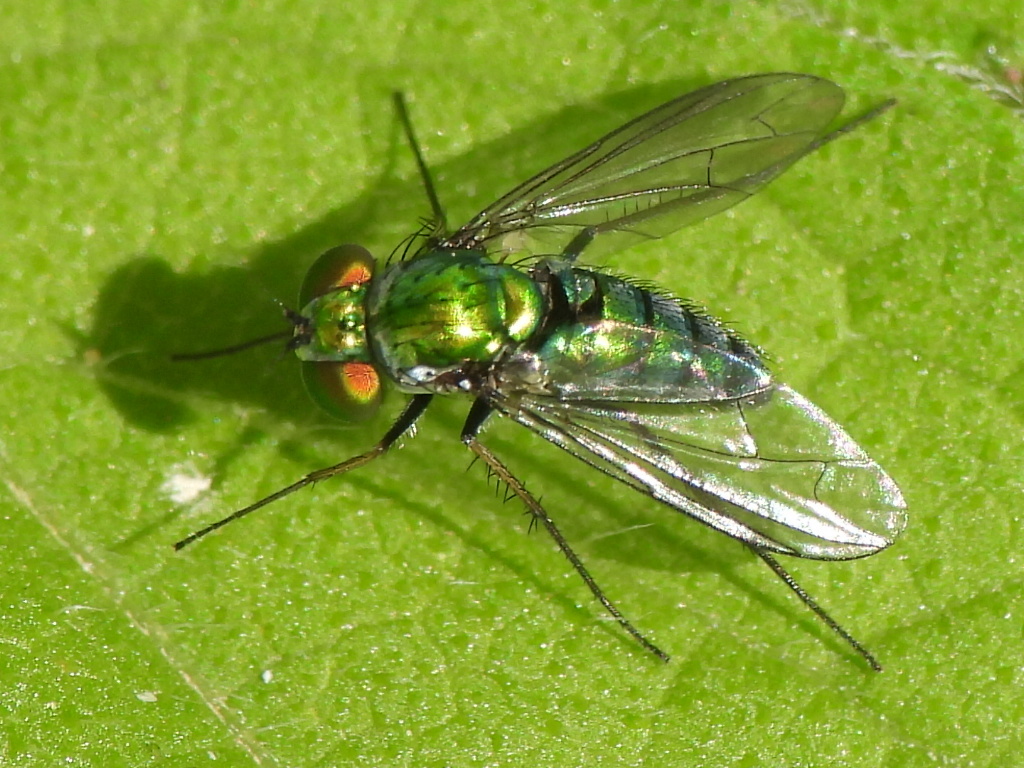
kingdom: Animalia
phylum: Arthropoda
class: Insecta
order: Diptera
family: Dolichopodidae
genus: Condylostylus
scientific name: Condylostylus longicornis
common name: Long-legged fly
